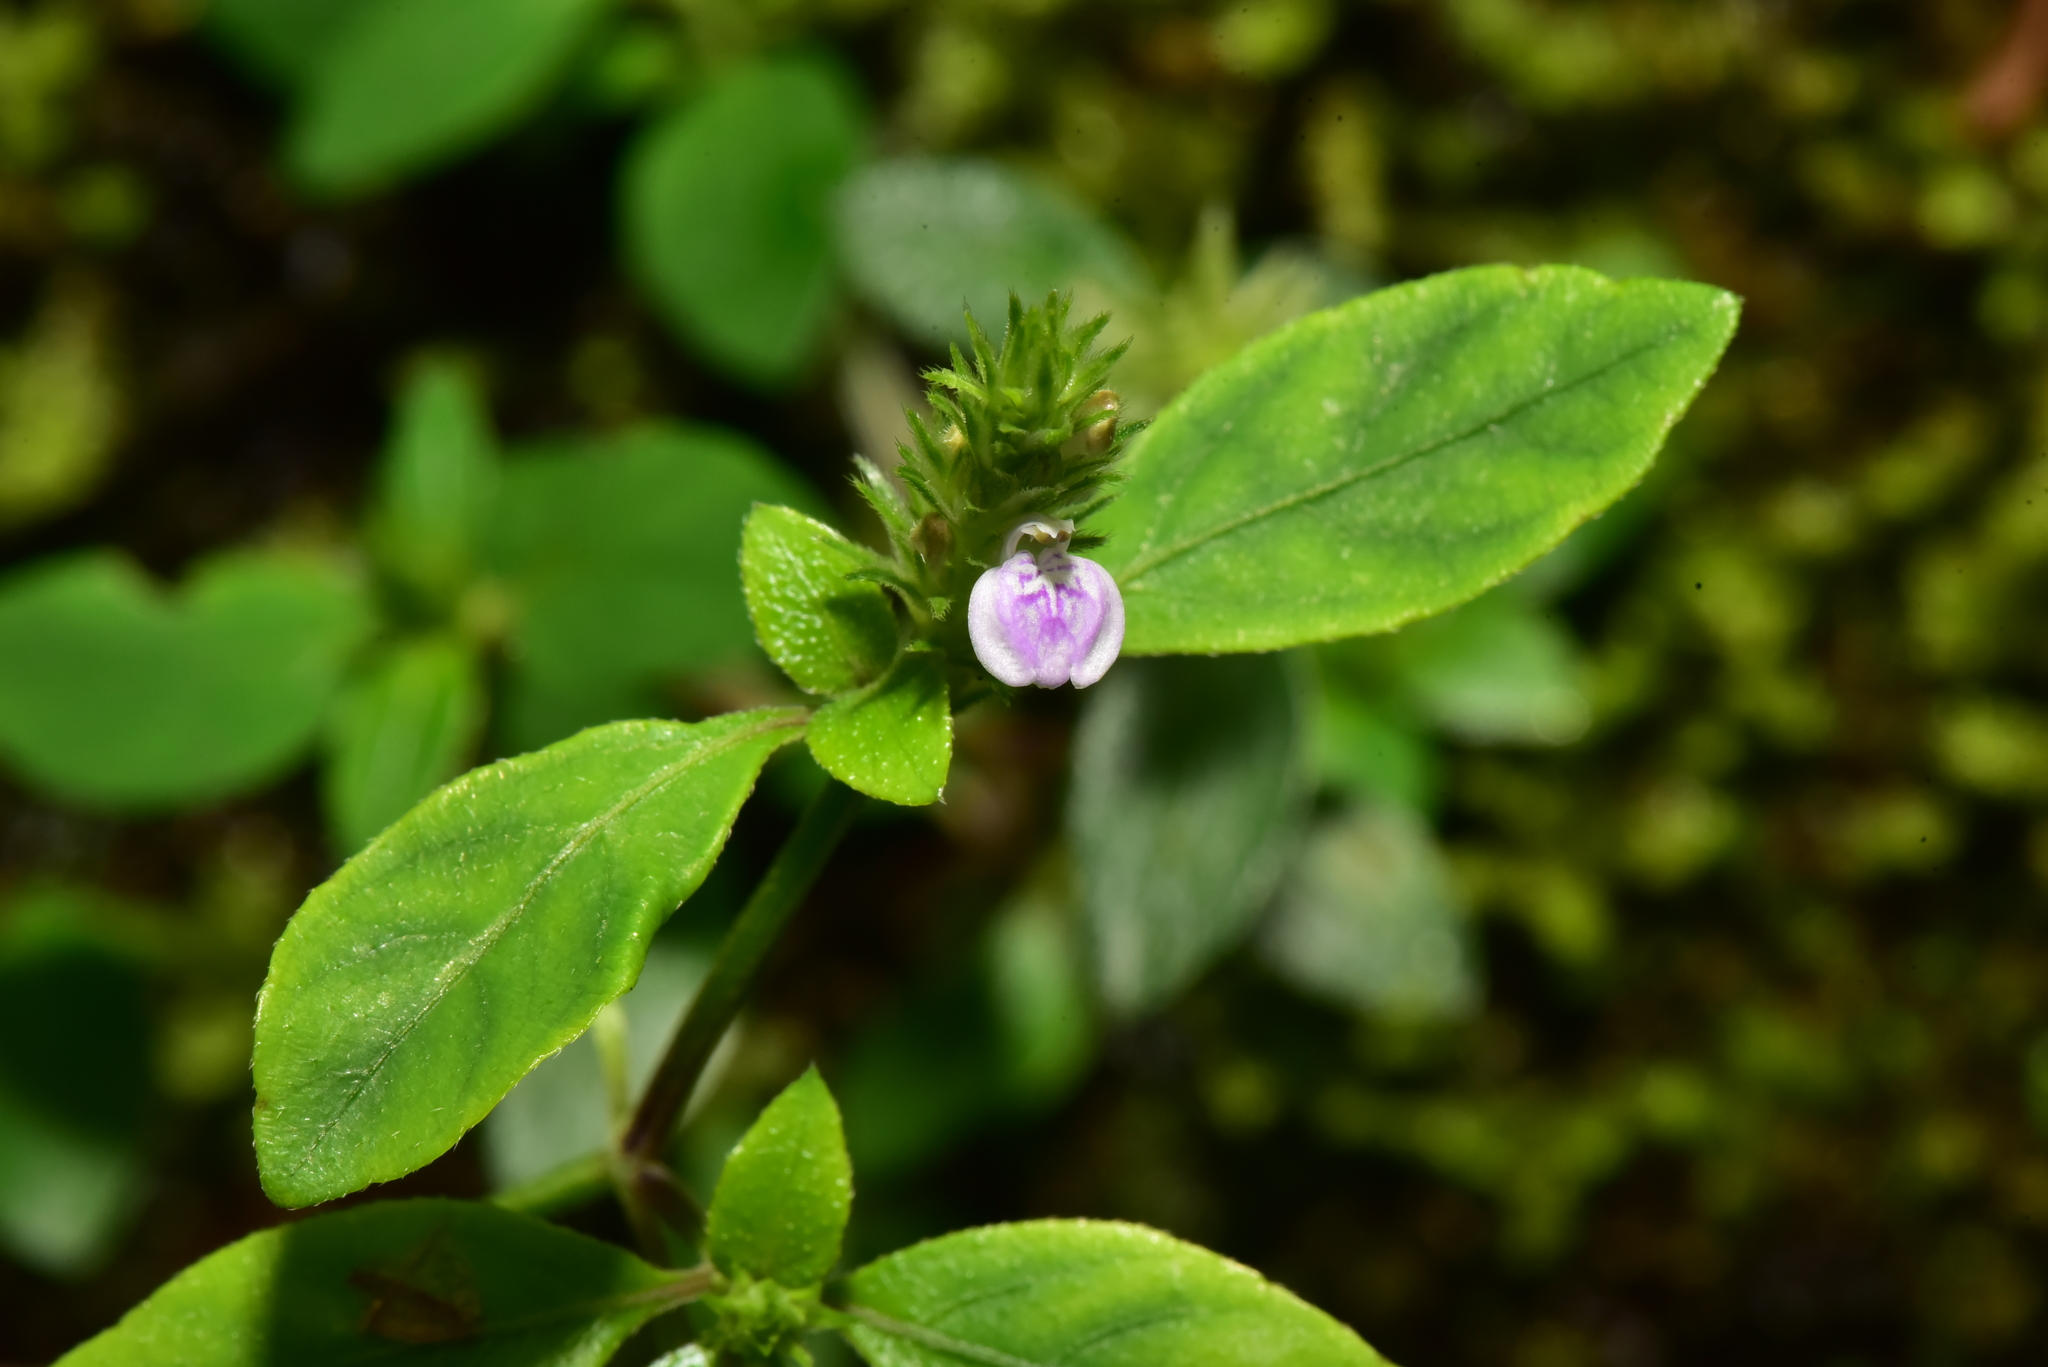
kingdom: Plantae
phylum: Tracheophyta
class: Magnoliopsida
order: Lamiales
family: Acanthaceae
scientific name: Acanthaceae
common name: Acanthaceae
